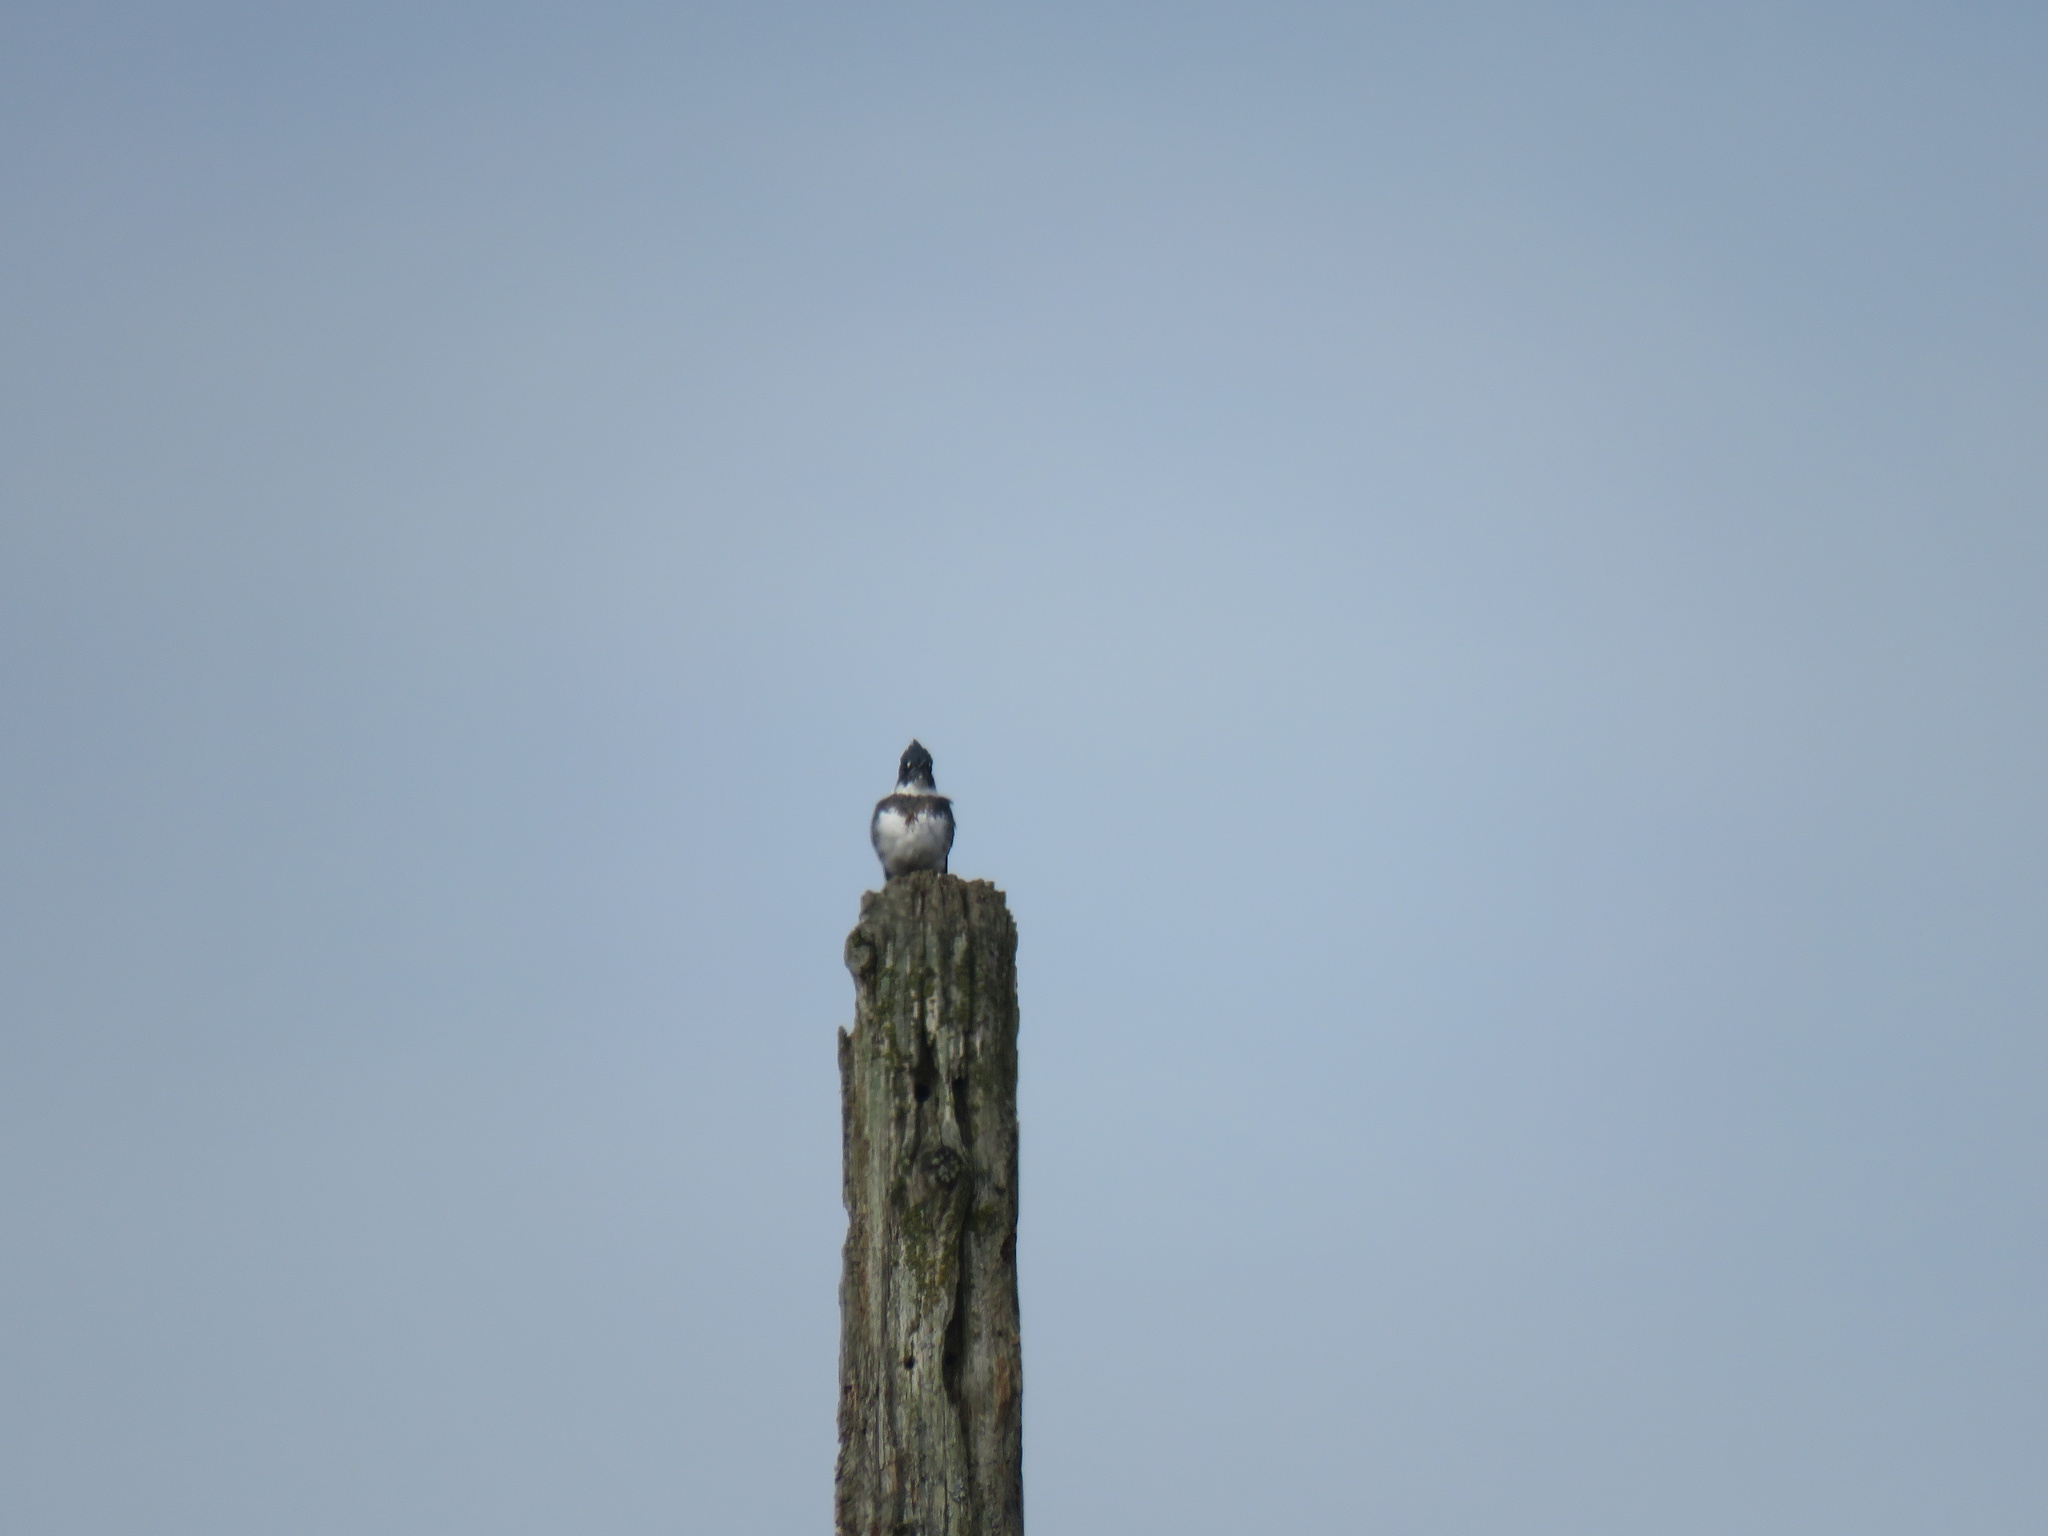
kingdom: Animalia
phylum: Chordata
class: Aves
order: Coraciiformes
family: Alcedinidae
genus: Megaceryle
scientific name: Megaceryle alcyon
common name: Belted kingfisher
